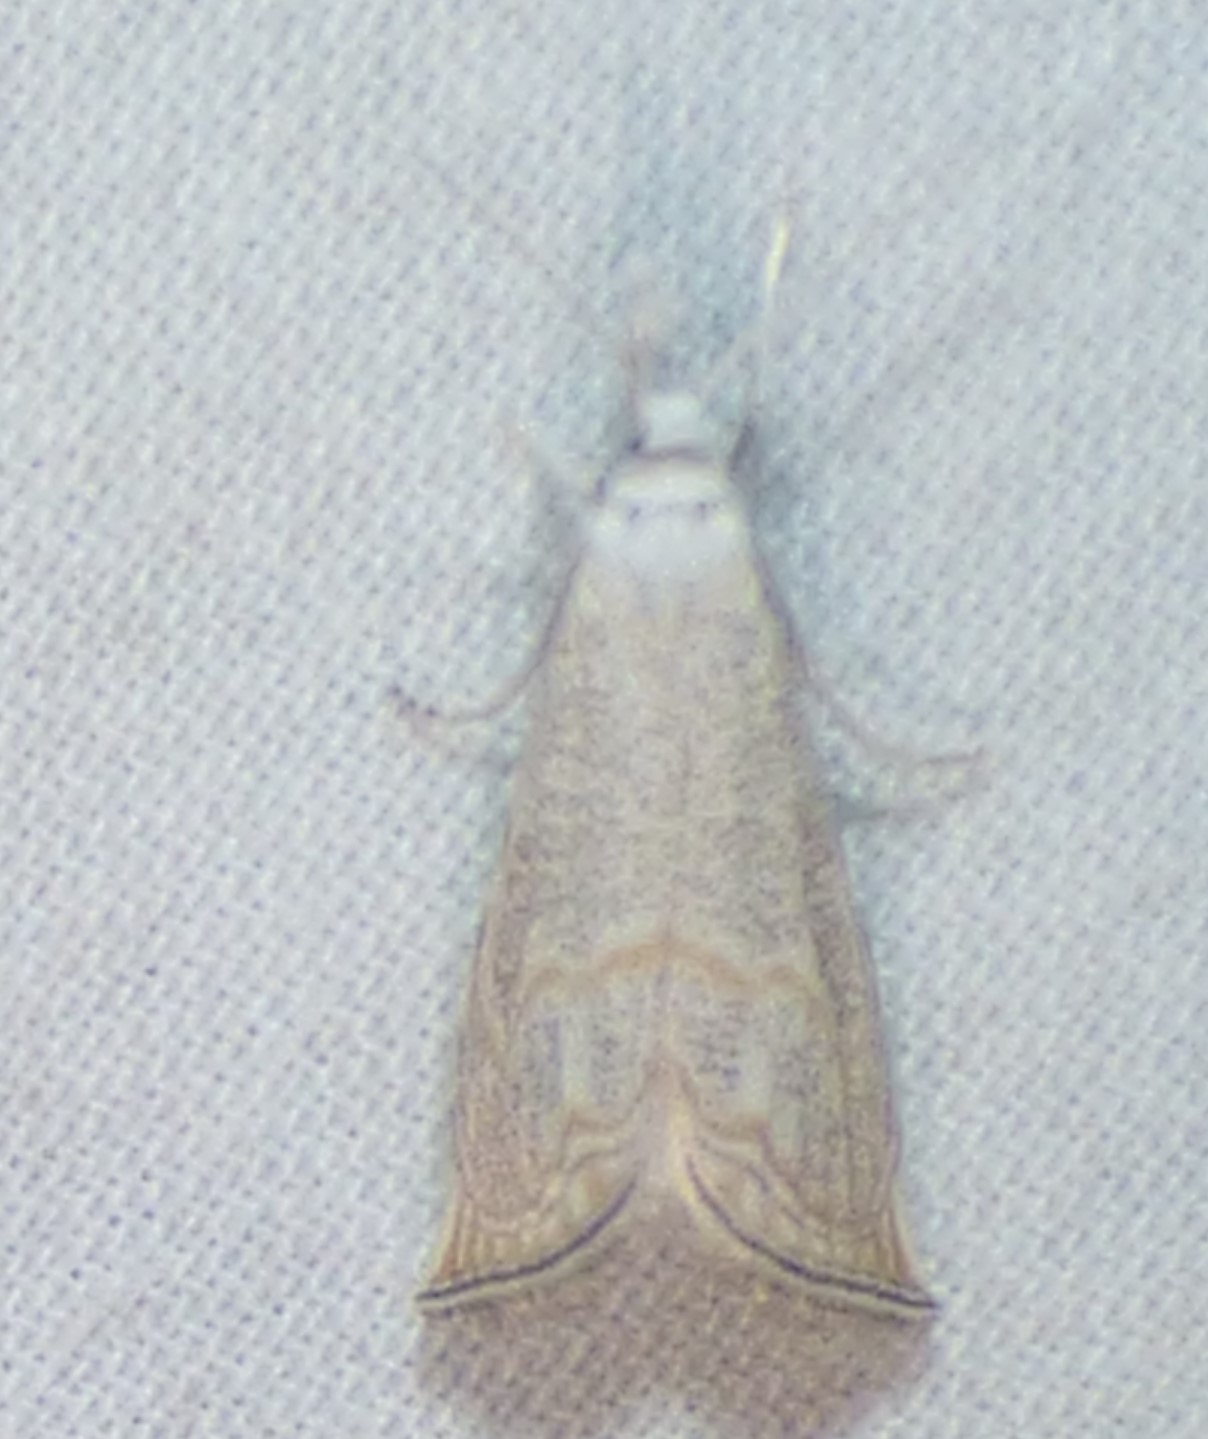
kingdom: Animalia
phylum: Arthropoda
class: Insecta
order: Lepidoptera
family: Crambidae
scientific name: Crambidae
